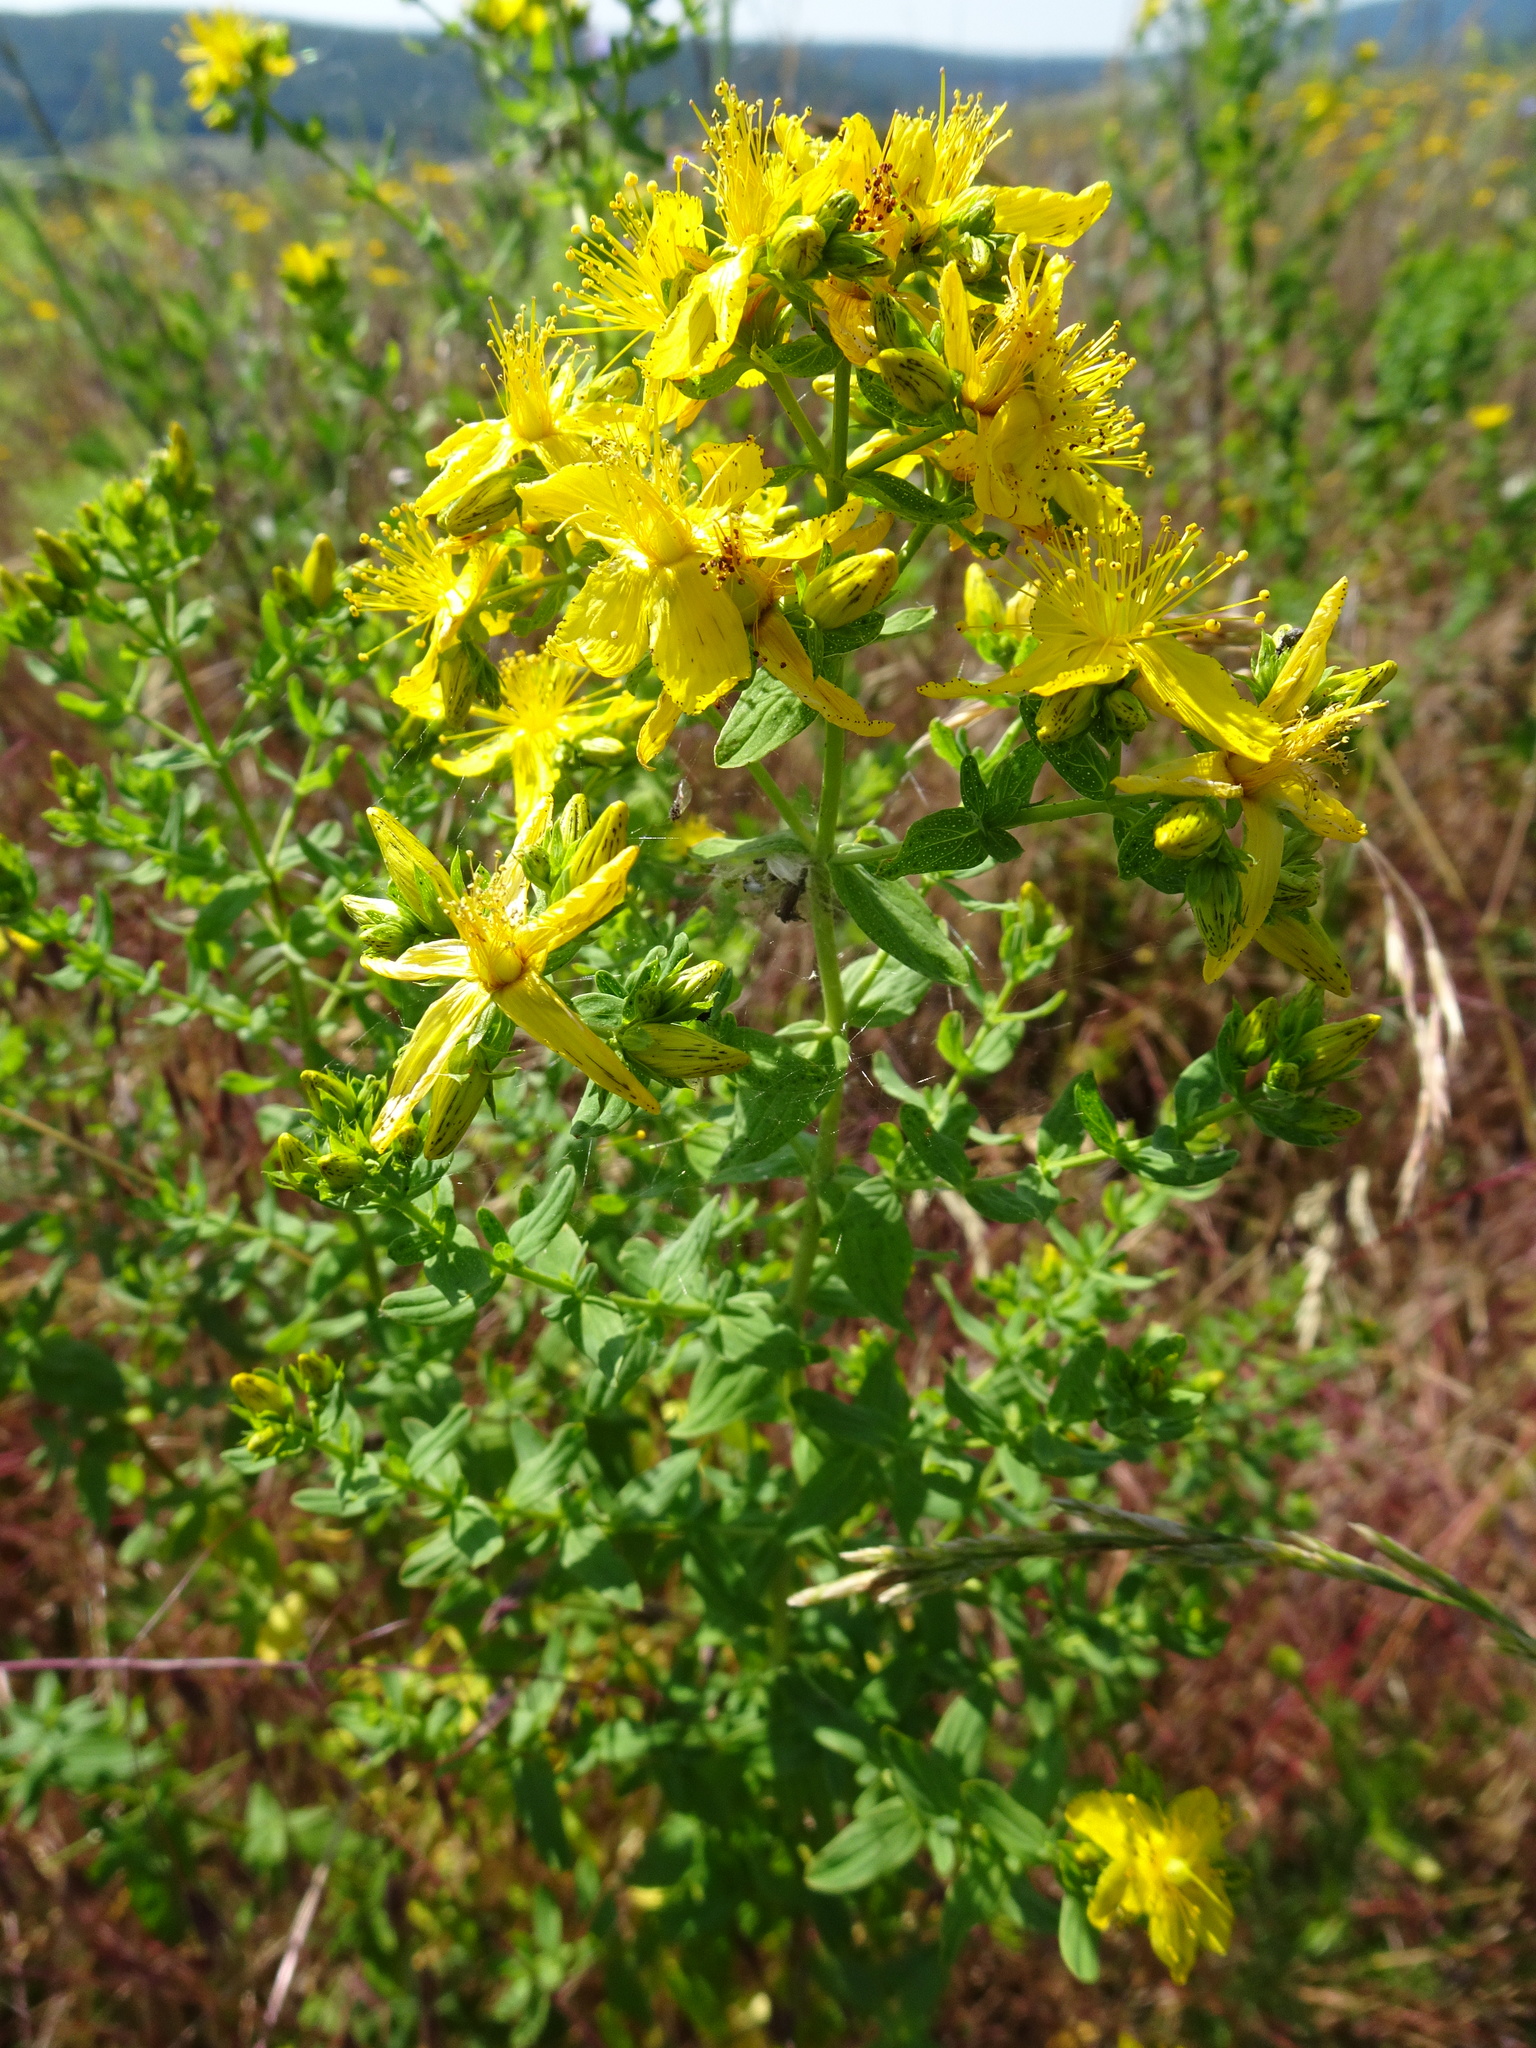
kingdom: Plantae
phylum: Tracheophyta
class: Magnoliopsida
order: Malpighiales
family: Hypericaceae
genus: Hypericum
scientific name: Hypericum perforatum
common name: Common st. johnswort
